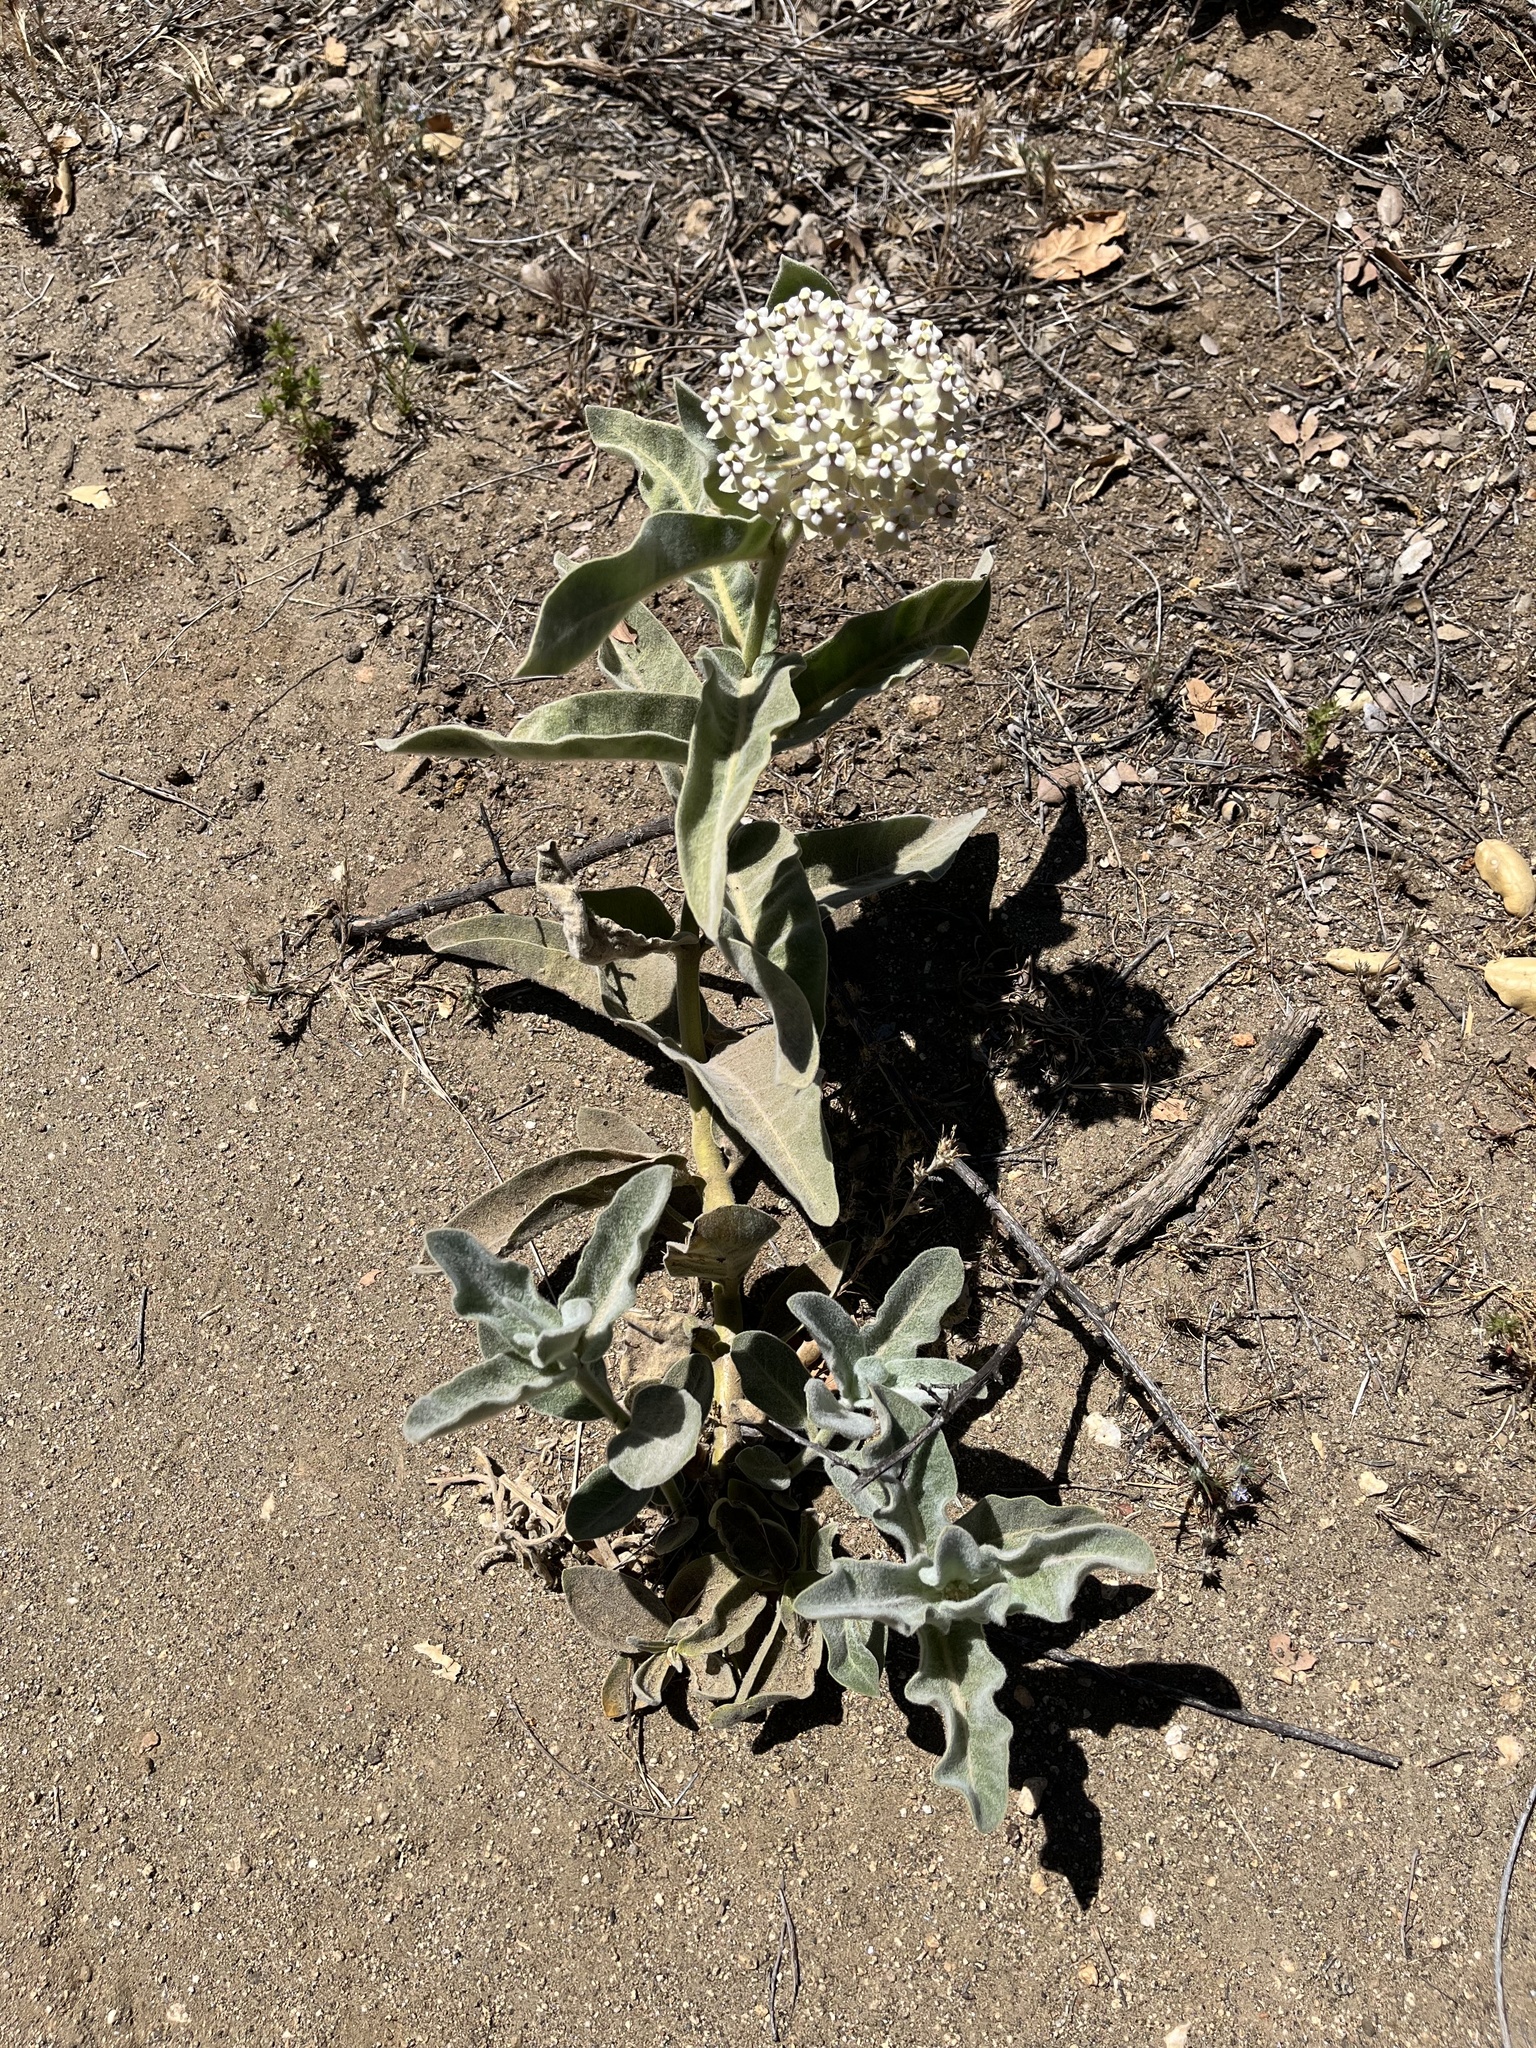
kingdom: Plantae
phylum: Tracheophyta
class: Magnoliopsida
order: Gentianales
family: Apocynaceae
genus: Asclepias
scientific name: Asclepias eriocarpa
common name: Indian milkweed
